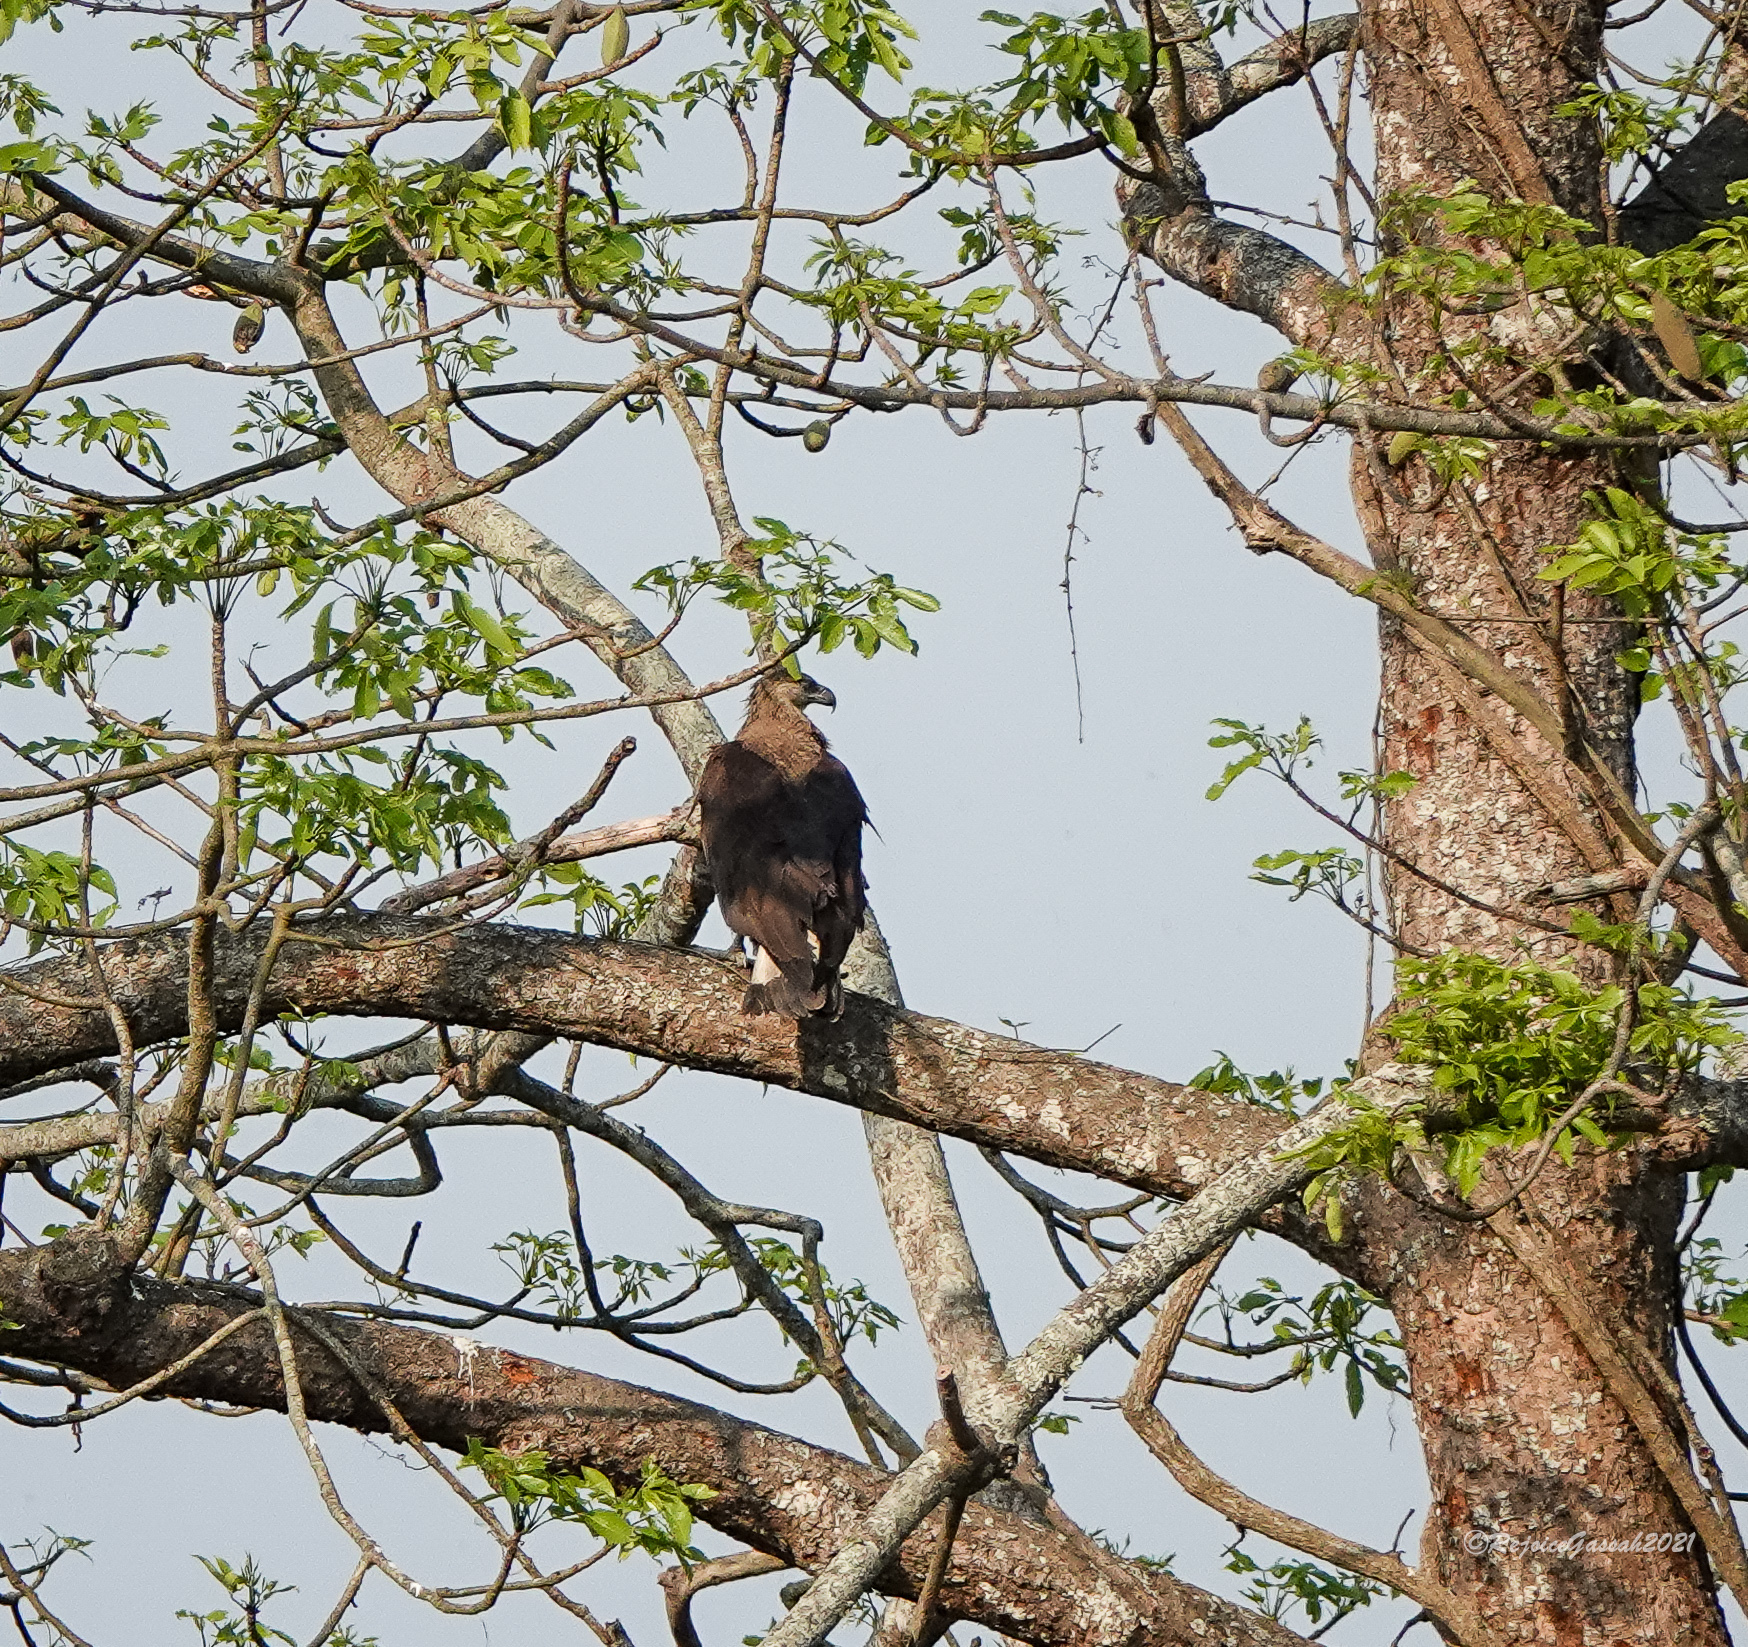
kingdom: Animalia
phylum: Chordata
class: Aves
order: Accipitriformes
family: Accipitridae
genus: Haliaeetus
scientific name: Haliaeetus leucoryphus
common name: Pallas's fish eagle
